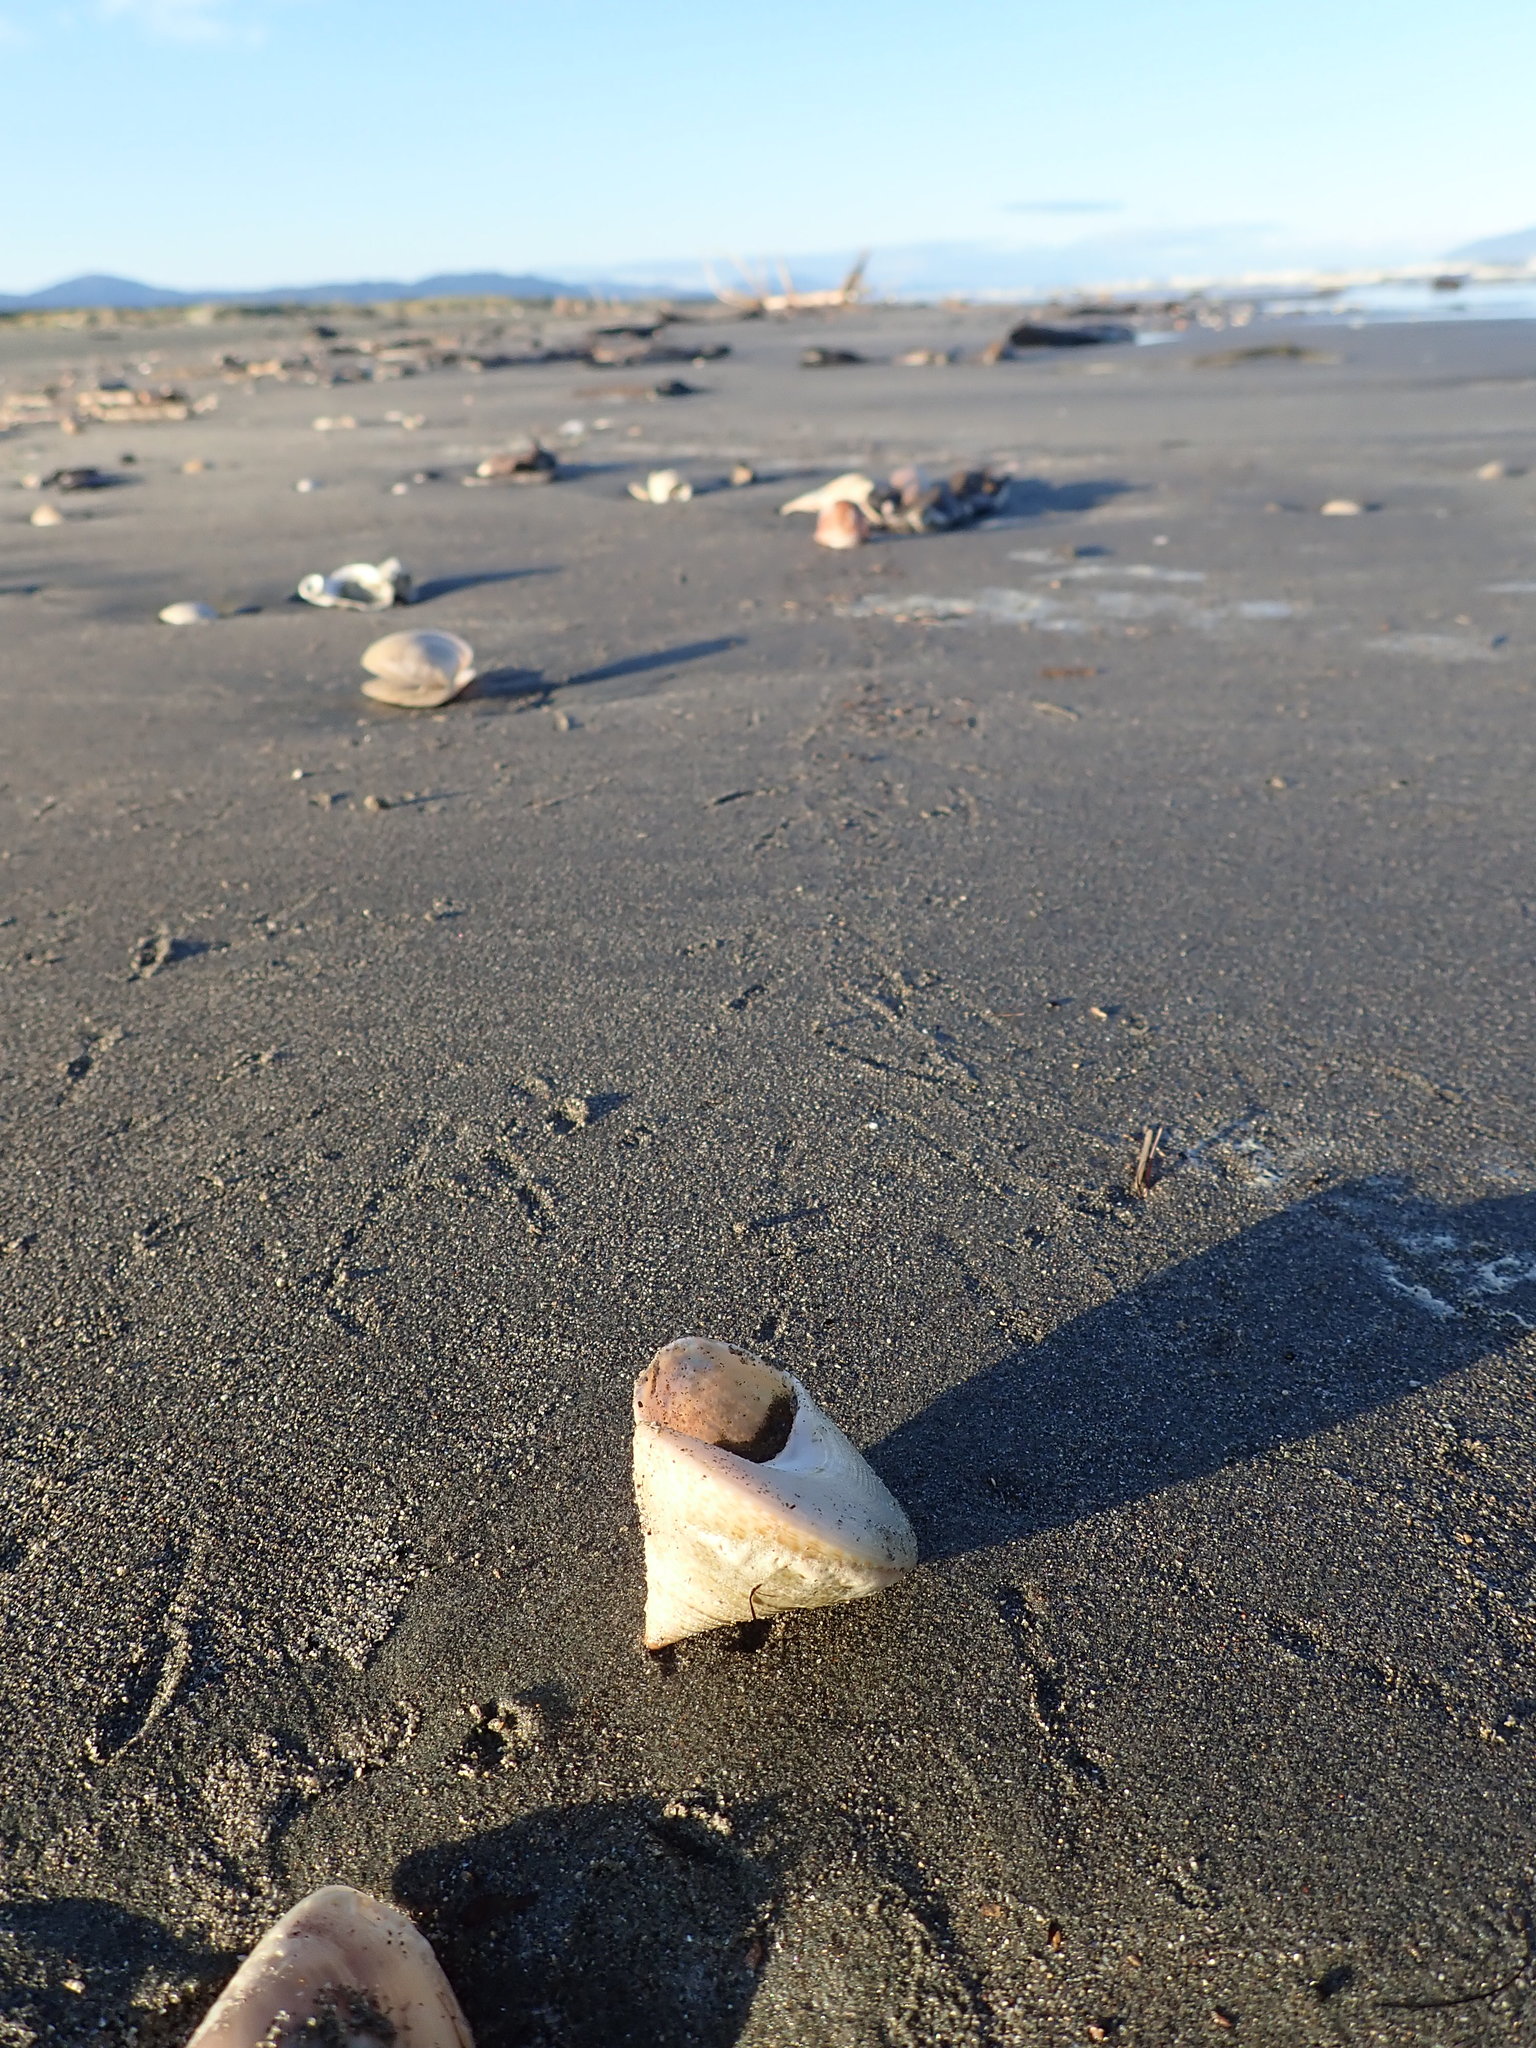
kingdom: Animalia
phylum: Mollusca
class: Gastropoda
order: Trochida
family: Calliostomatidae
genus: Maurea
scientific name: Maurea selecta
